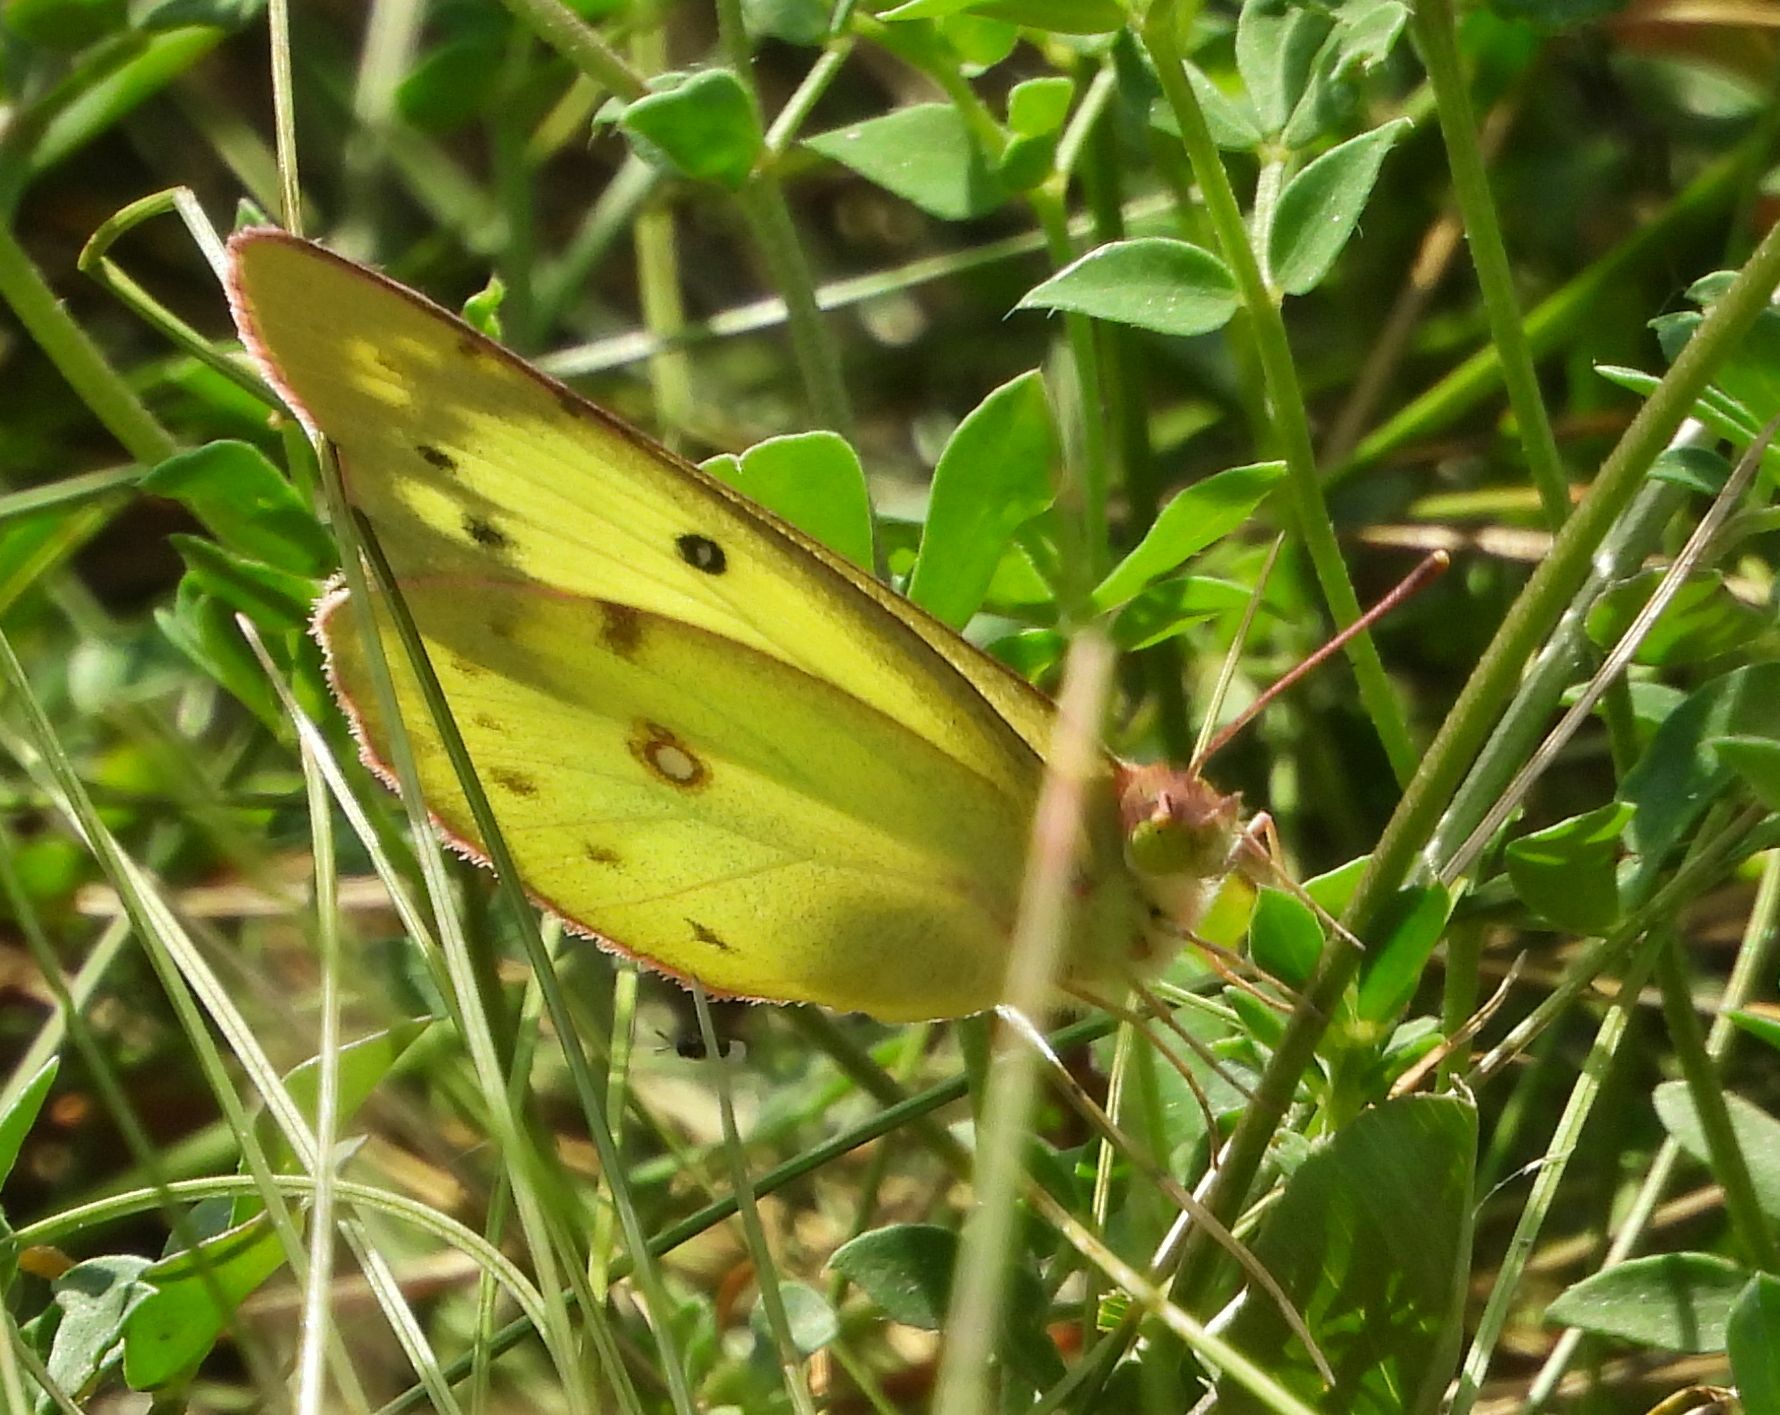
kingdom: Animalia
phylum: Arthropoda
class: Insecta
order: Lepidoptera
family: Pieridae
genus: Colias
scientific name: Colias philodice
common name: Clouded sulphur
